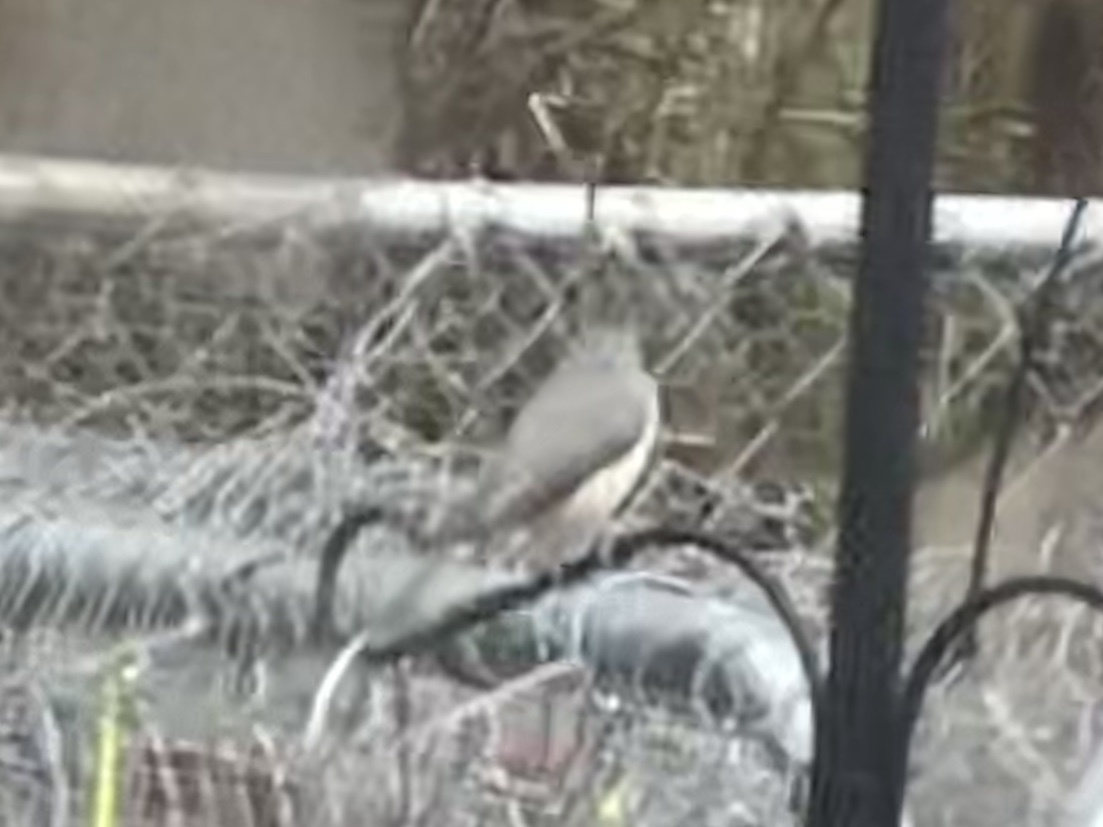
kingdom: Animalia
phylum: Chordata
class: Aves
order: Passeriformes
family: Paridae
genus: Baeolophus
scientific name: Baeolophus bicolor
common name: Tufted titmouse
